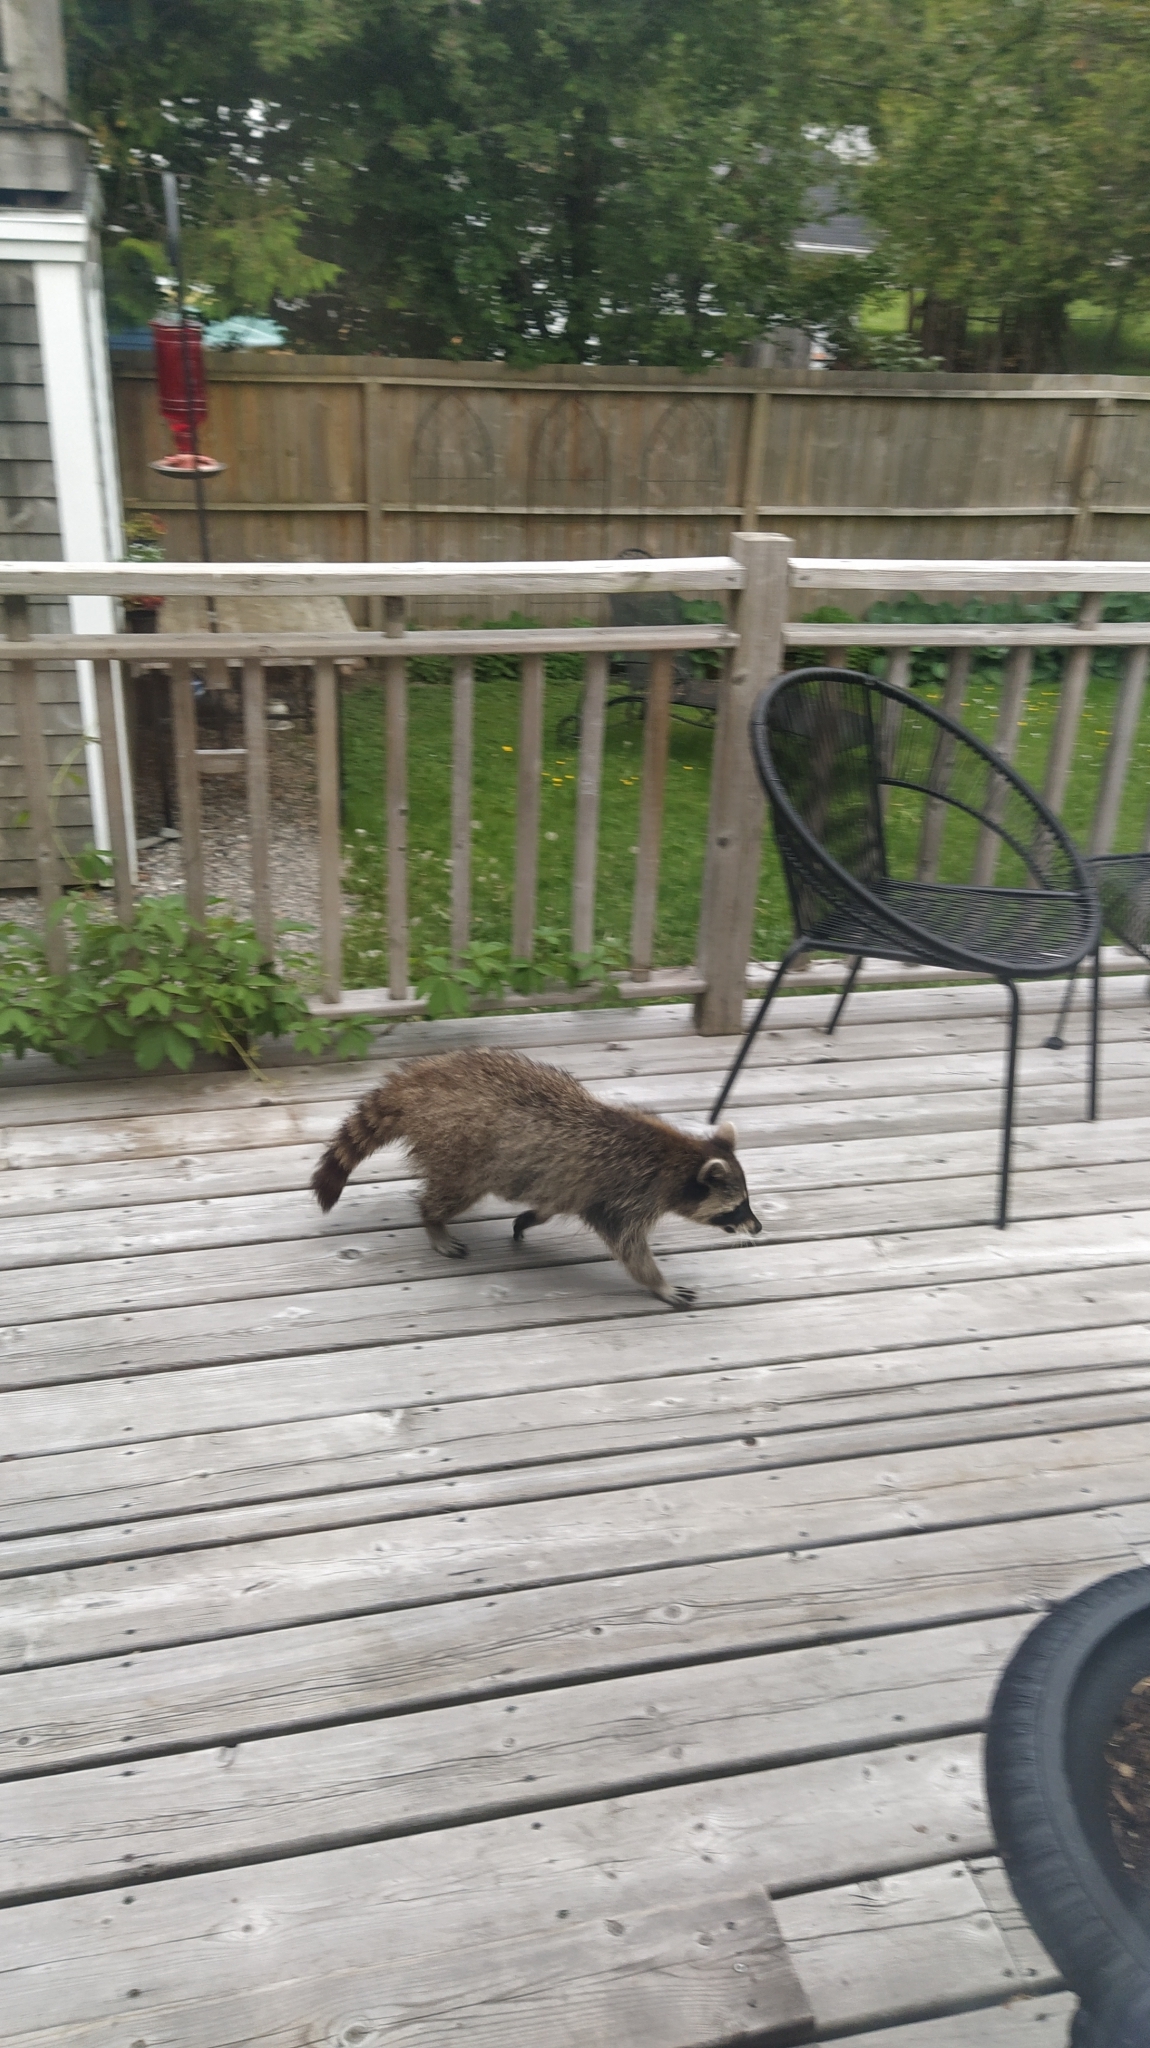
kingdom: Animalia
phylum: Chordata
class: Mammalia
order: Carnivora
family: Procyonidae
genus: Procyon
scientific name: Procyon lotor
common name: Raccoon
